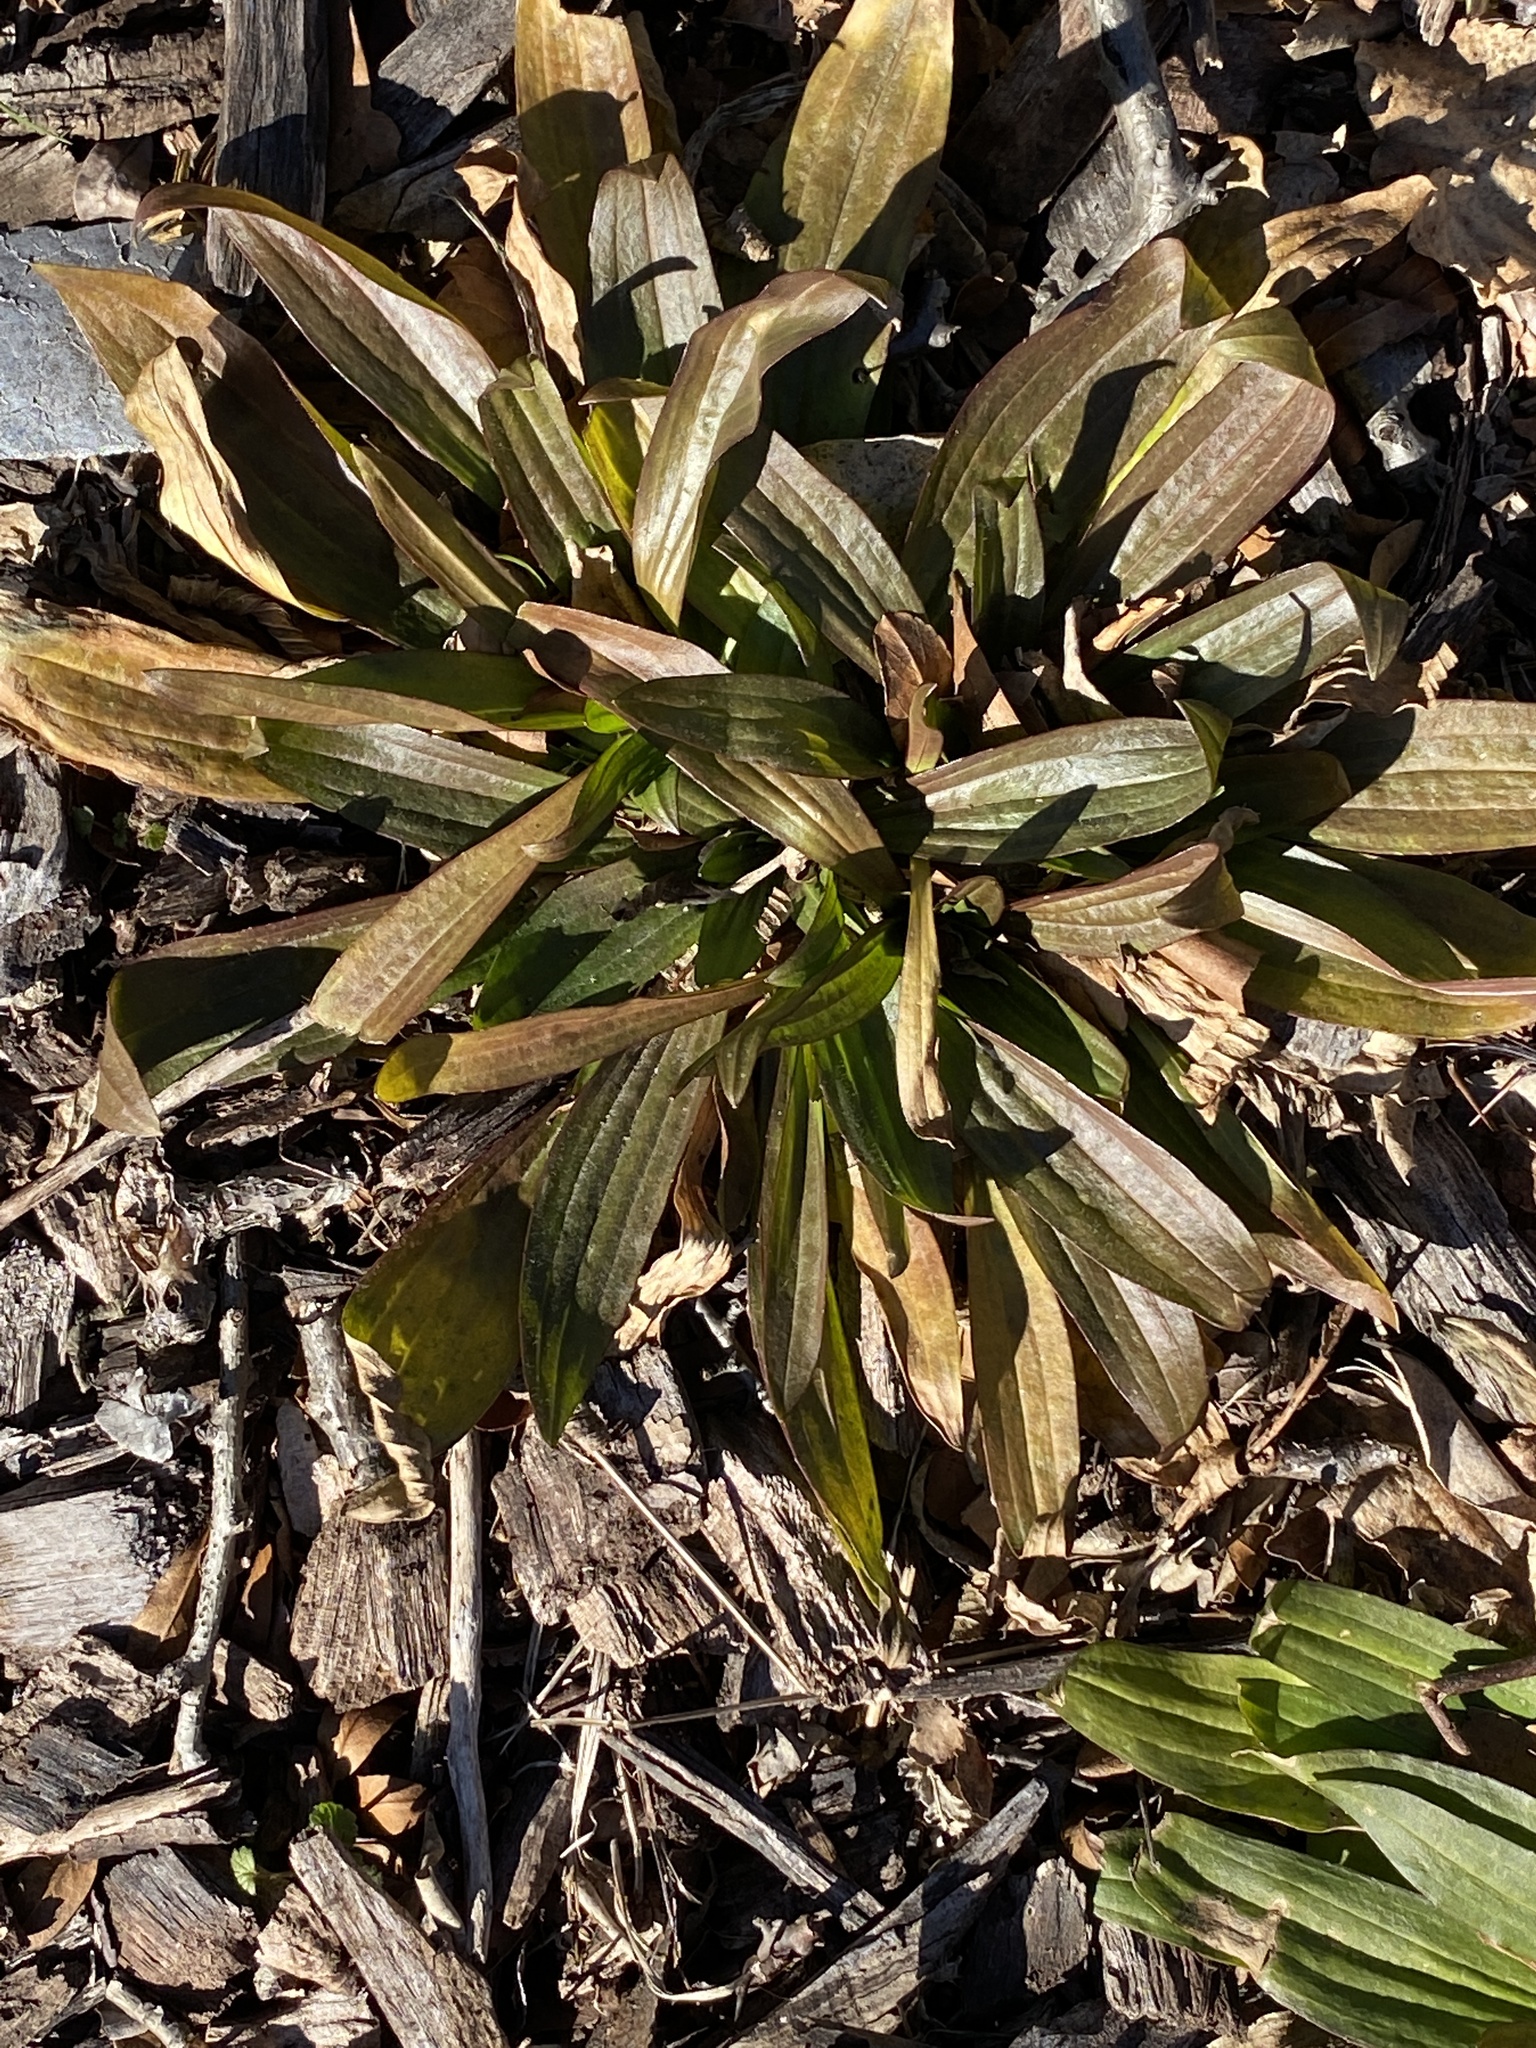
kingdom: Plantae
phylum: Tracheophyta
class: Magnoliopsida
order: Lamiales
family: Plantaginaceae
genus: Plantago
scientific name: Plantago lanceolata
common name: Ribwort plantain
